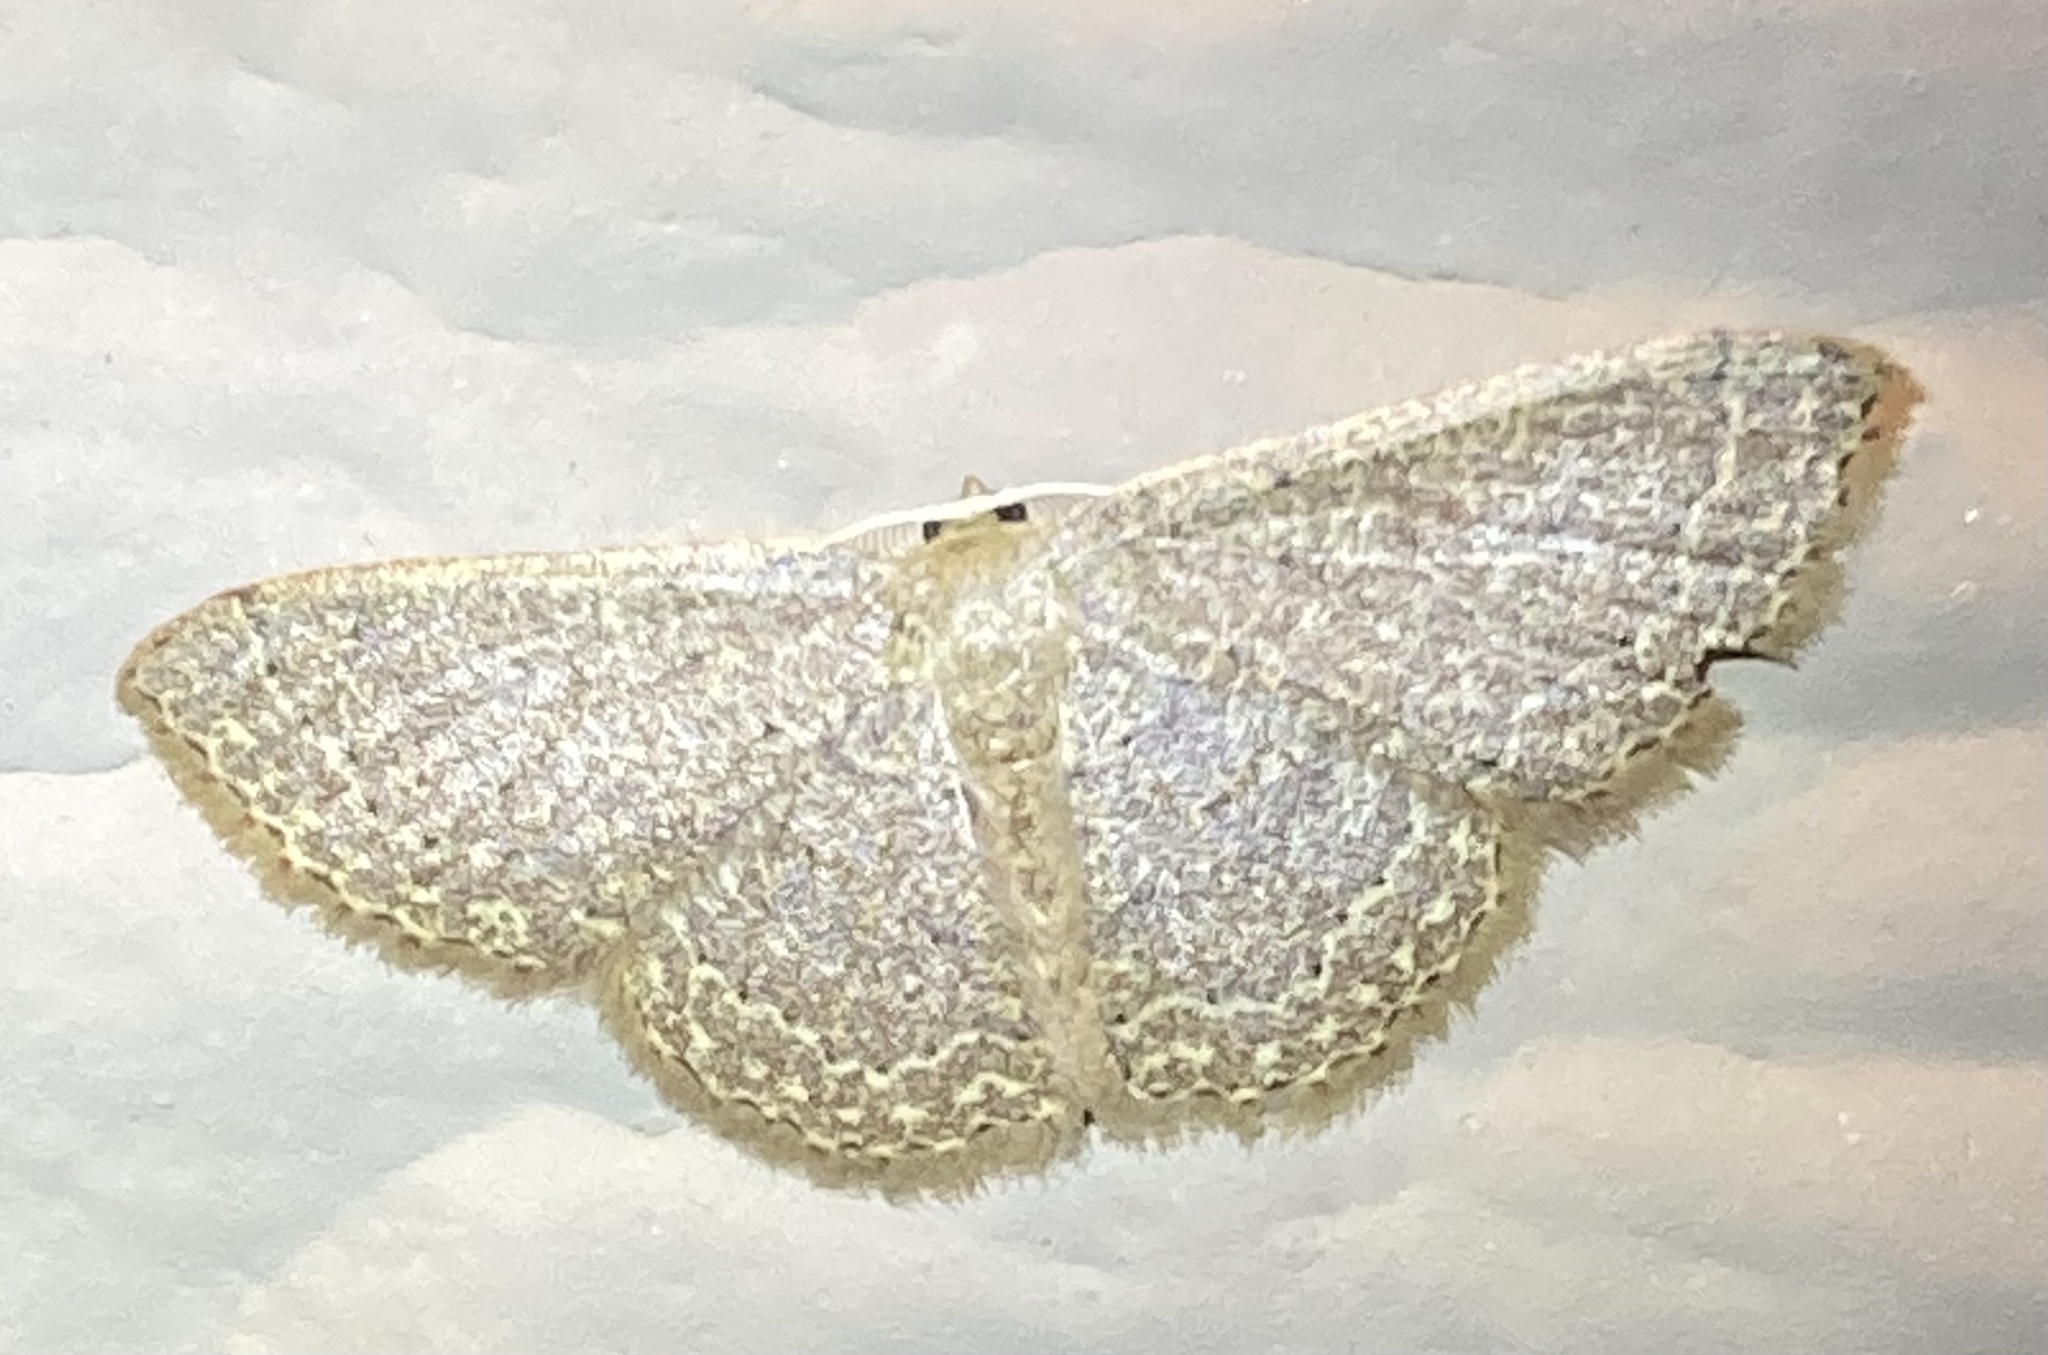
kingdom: Animalia
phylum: Arthropoda
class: Insecta
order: Lepidoptera
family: Geometridae
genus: Pleuroprucha
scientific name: Pleuroprucha insulsaria
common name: Common tan wave
